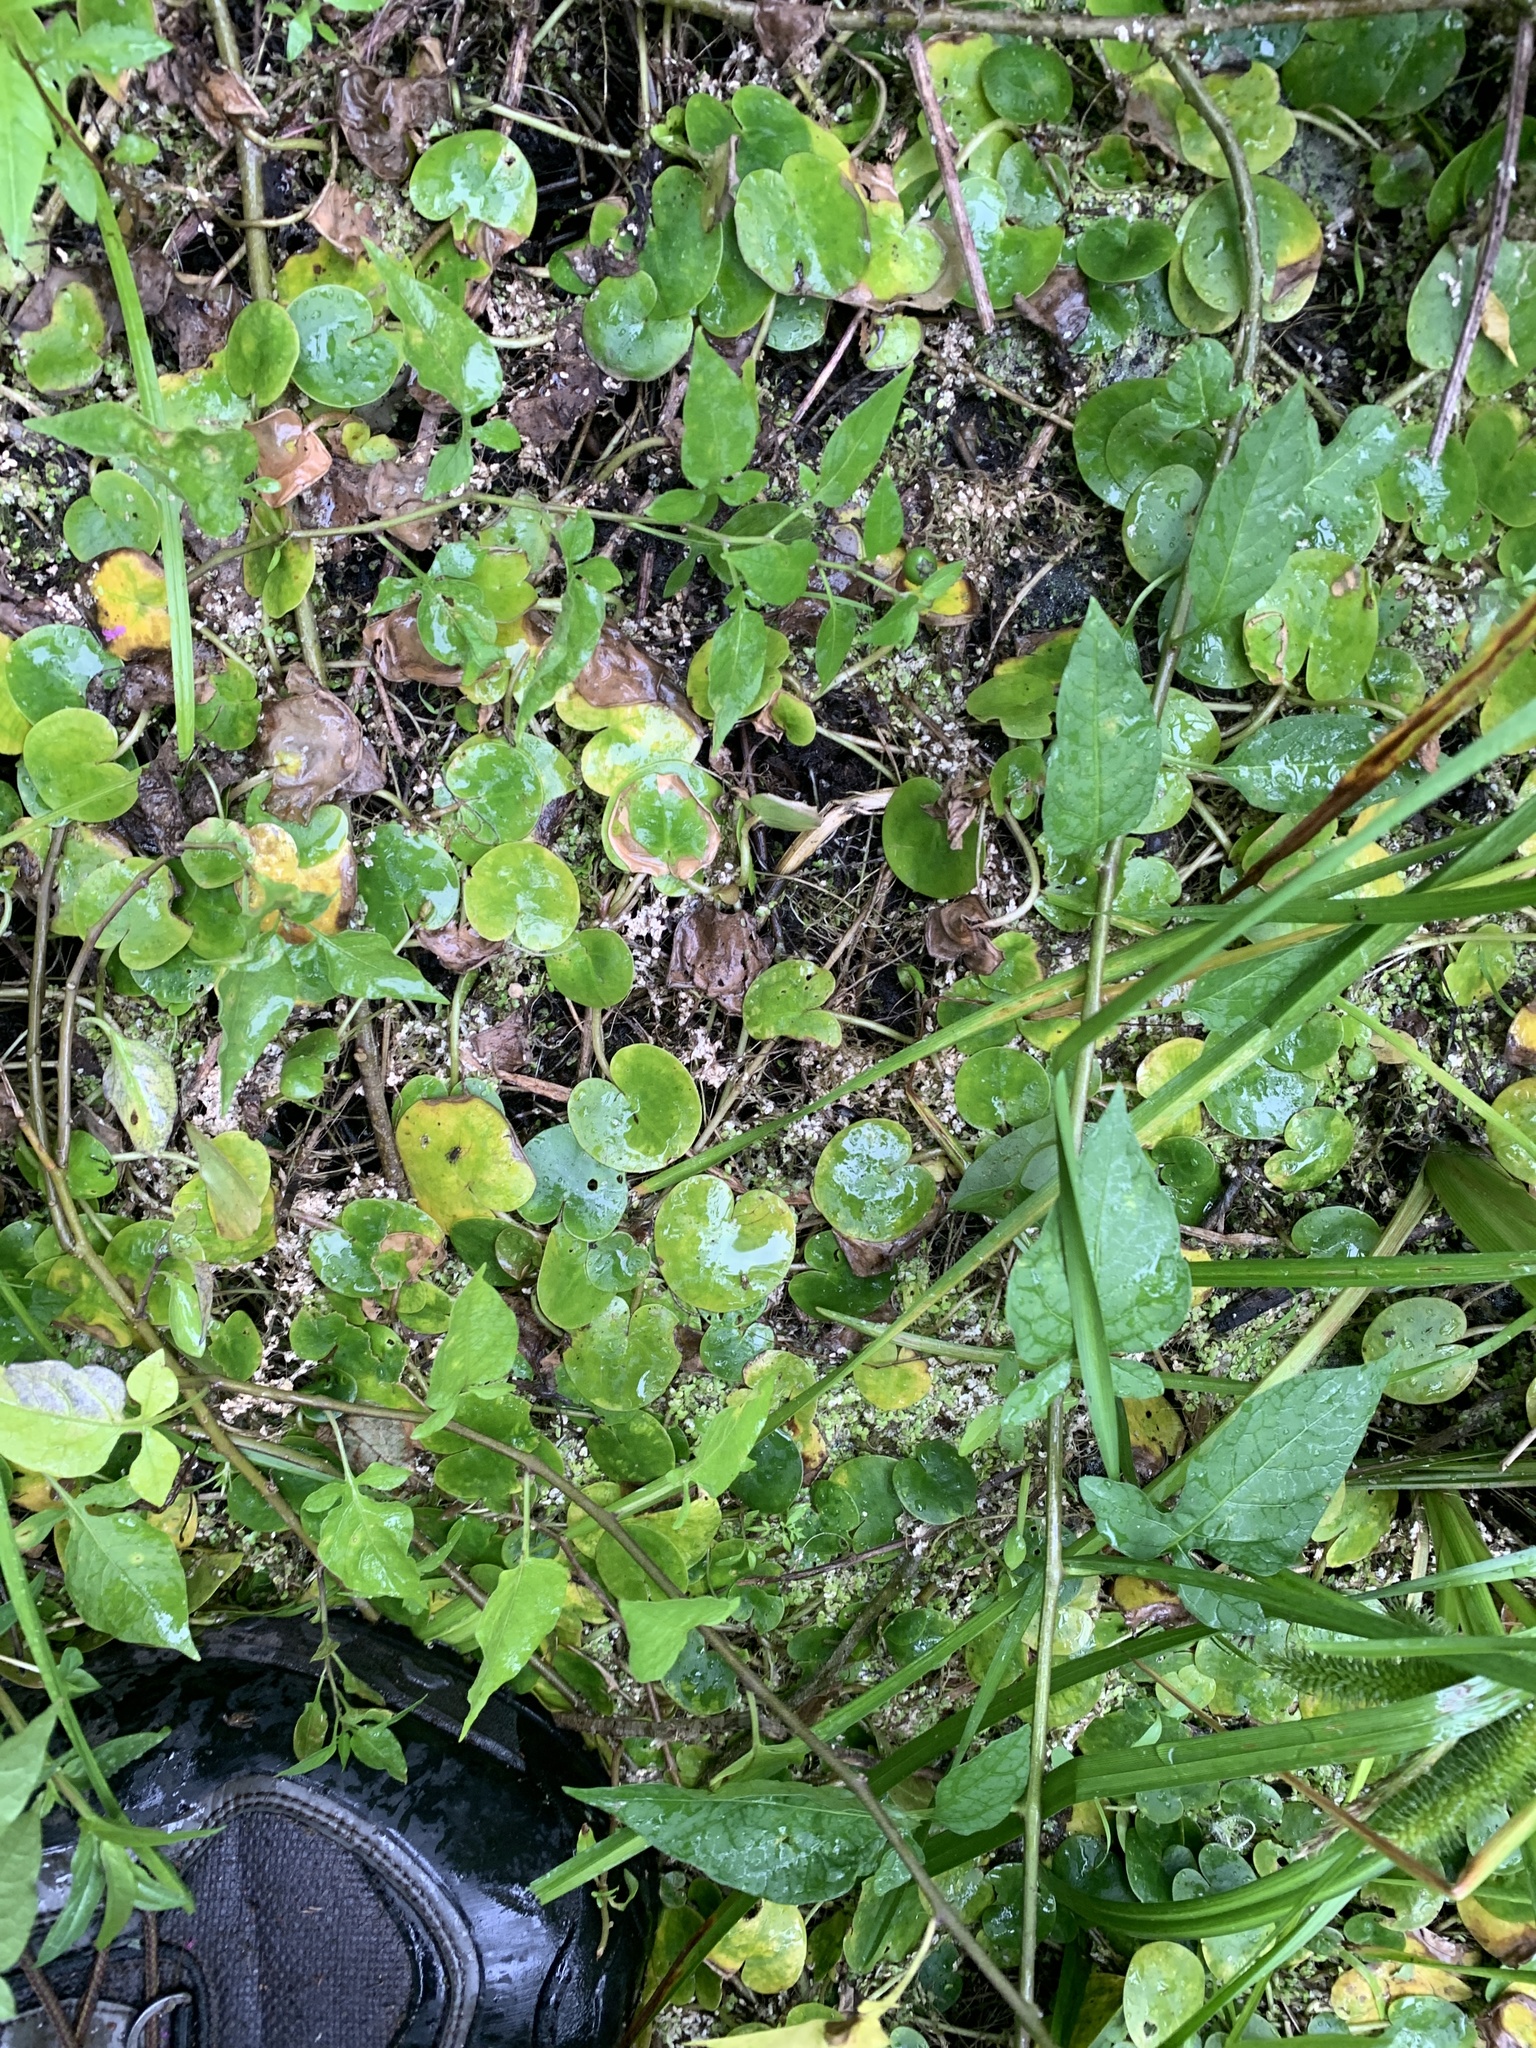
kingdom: Plantae
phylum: Tracheophyta
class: Liliopsida
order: Alismatales
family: Hydrocharitaceae
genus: Hydrocharis
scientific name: Hydrocharis morsus-ranae
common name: Frogbit
